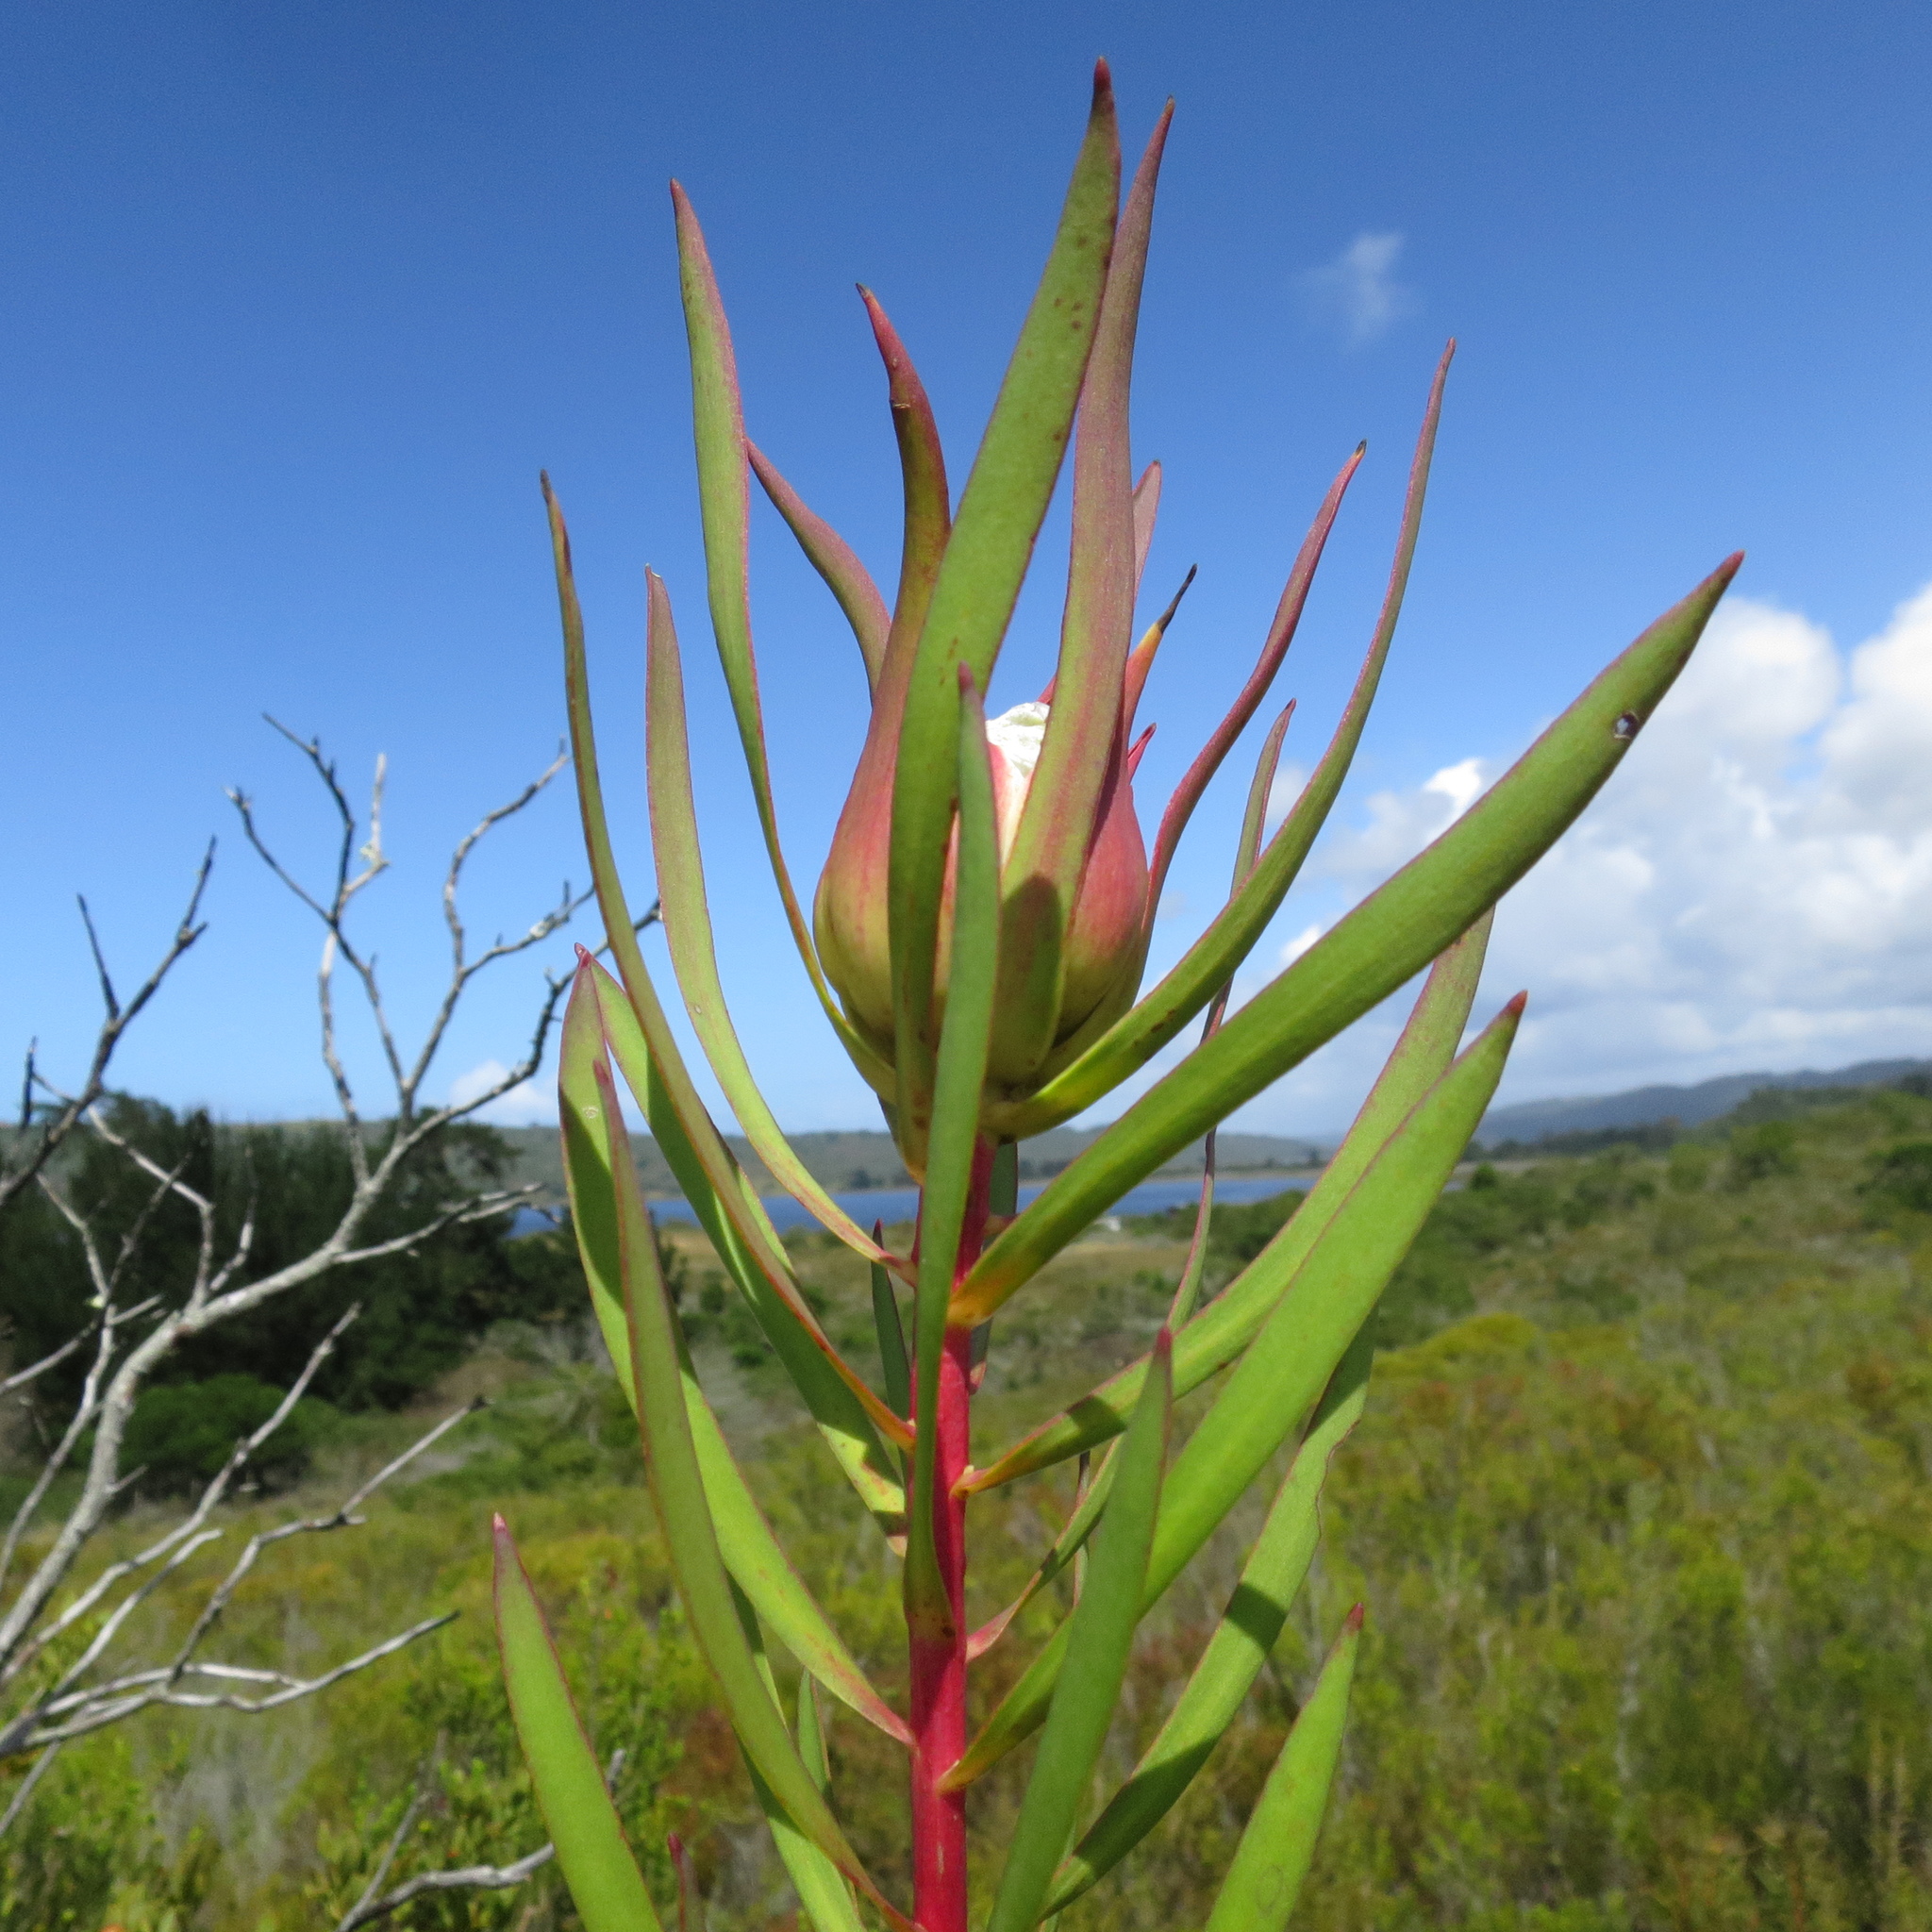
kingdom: Plantae
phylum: Tracheophyta
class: Magnoliopsida
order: Proteales
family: Proteaceae
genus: Leucadendron
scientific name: Leucadendron salignum
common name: Common sunshine conebush
